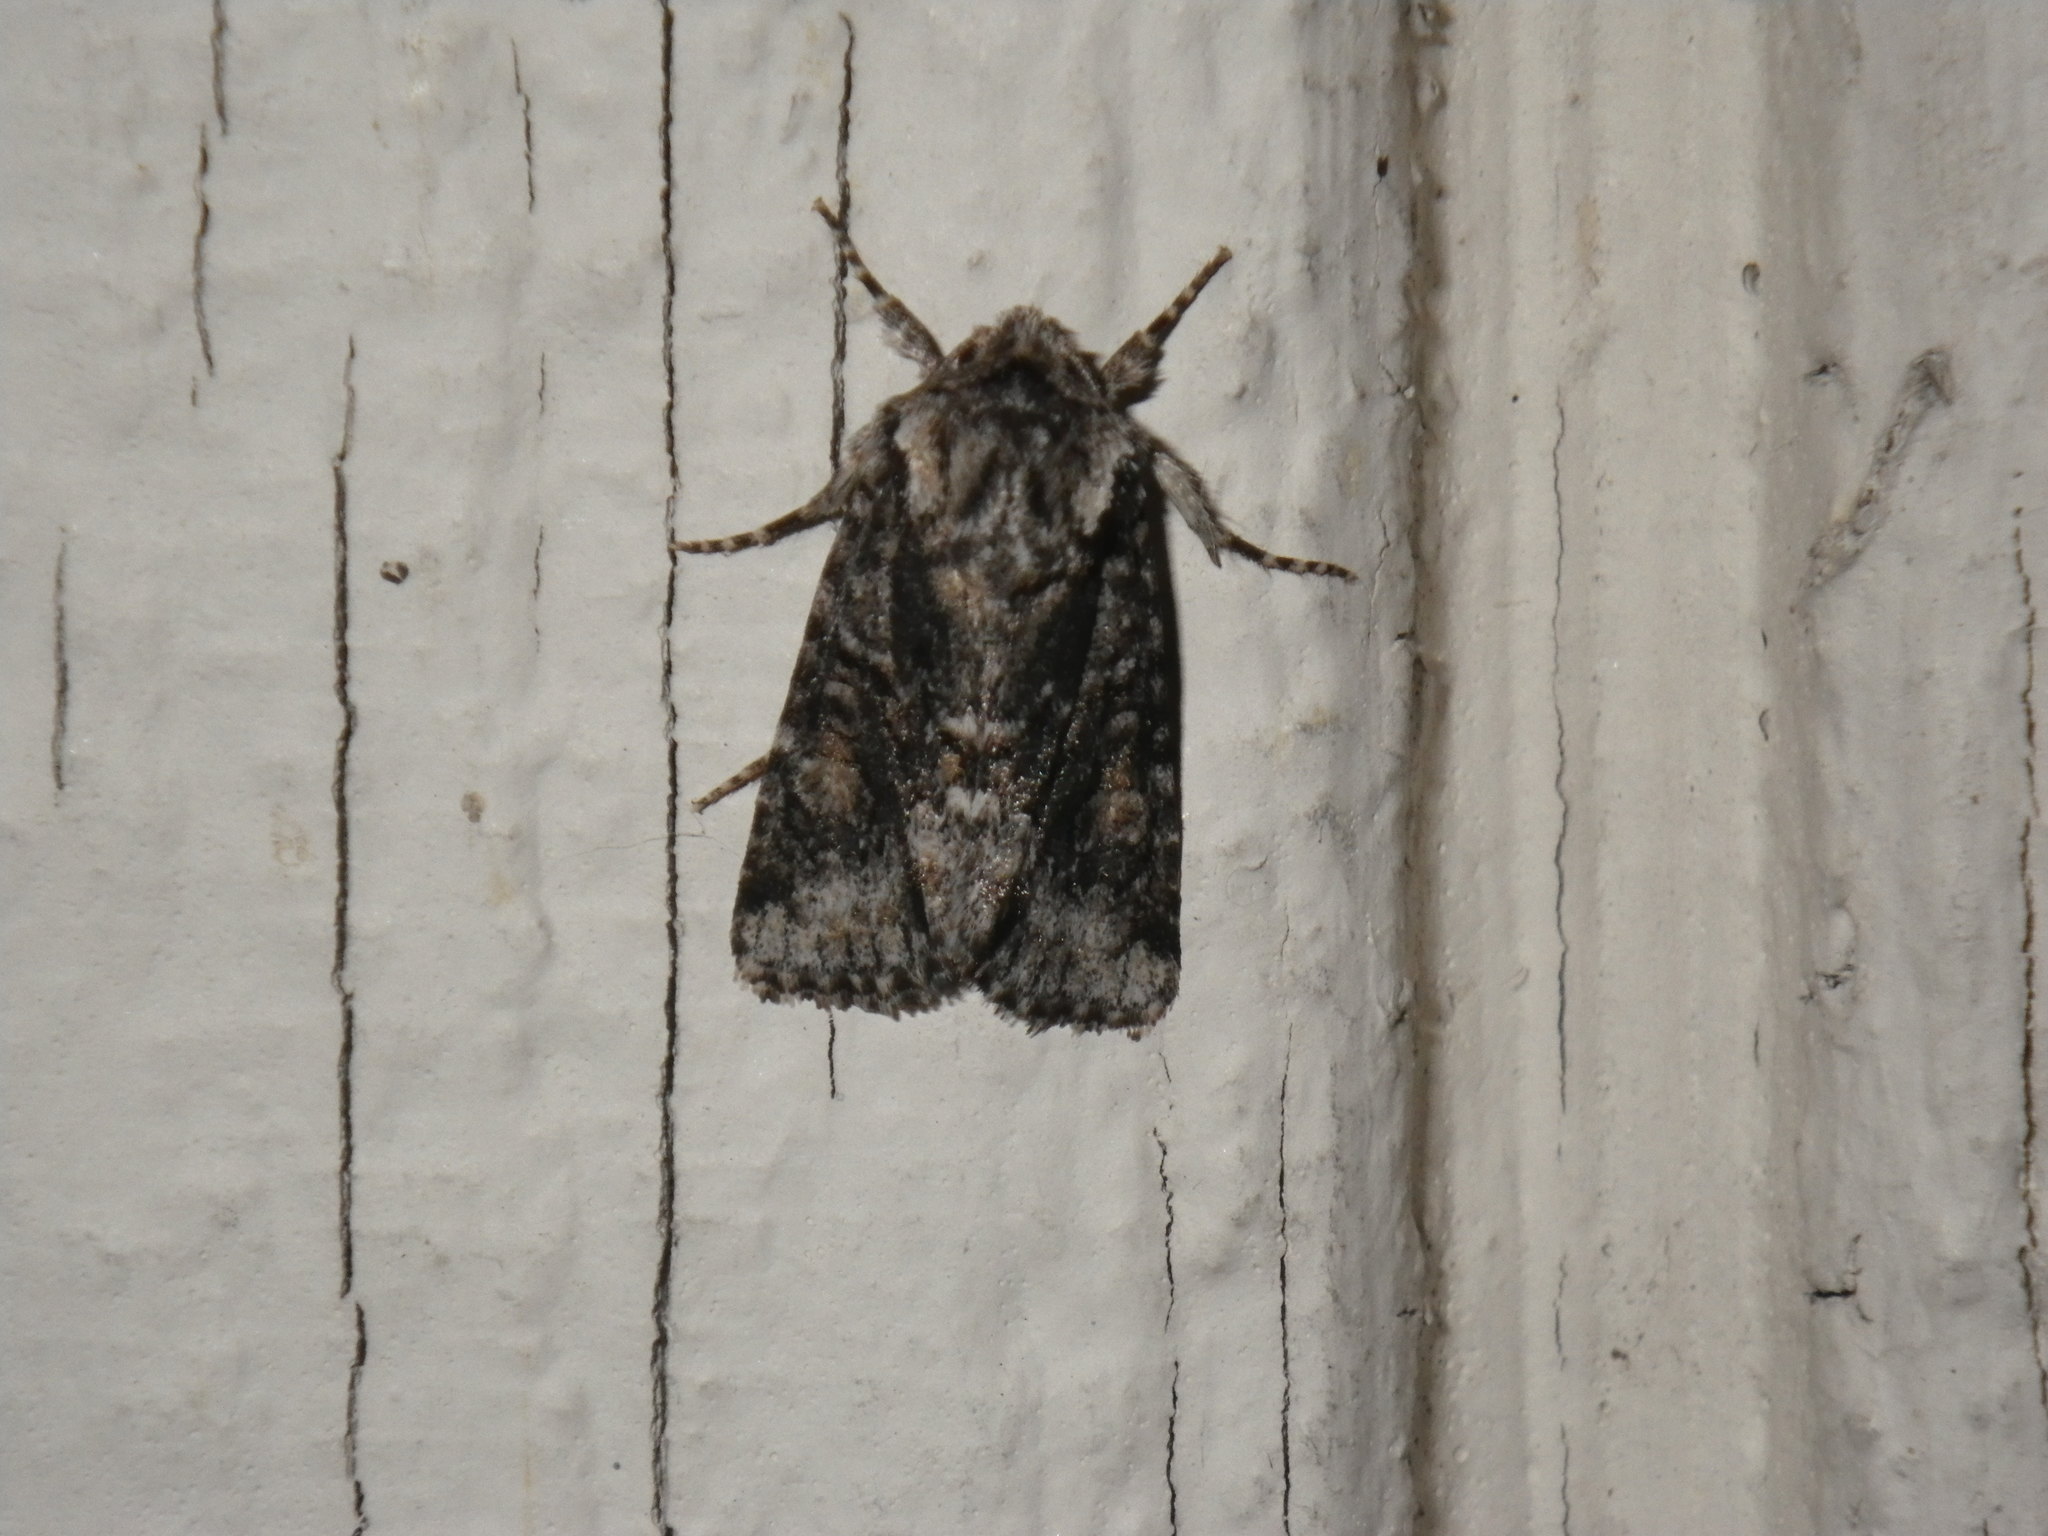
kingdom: Animalia
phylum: Arthropoda
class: Insecta
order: Lepidoptera
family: Noctuidae
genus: Lacinipolia
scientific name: Lacinipolia quadrilineata
